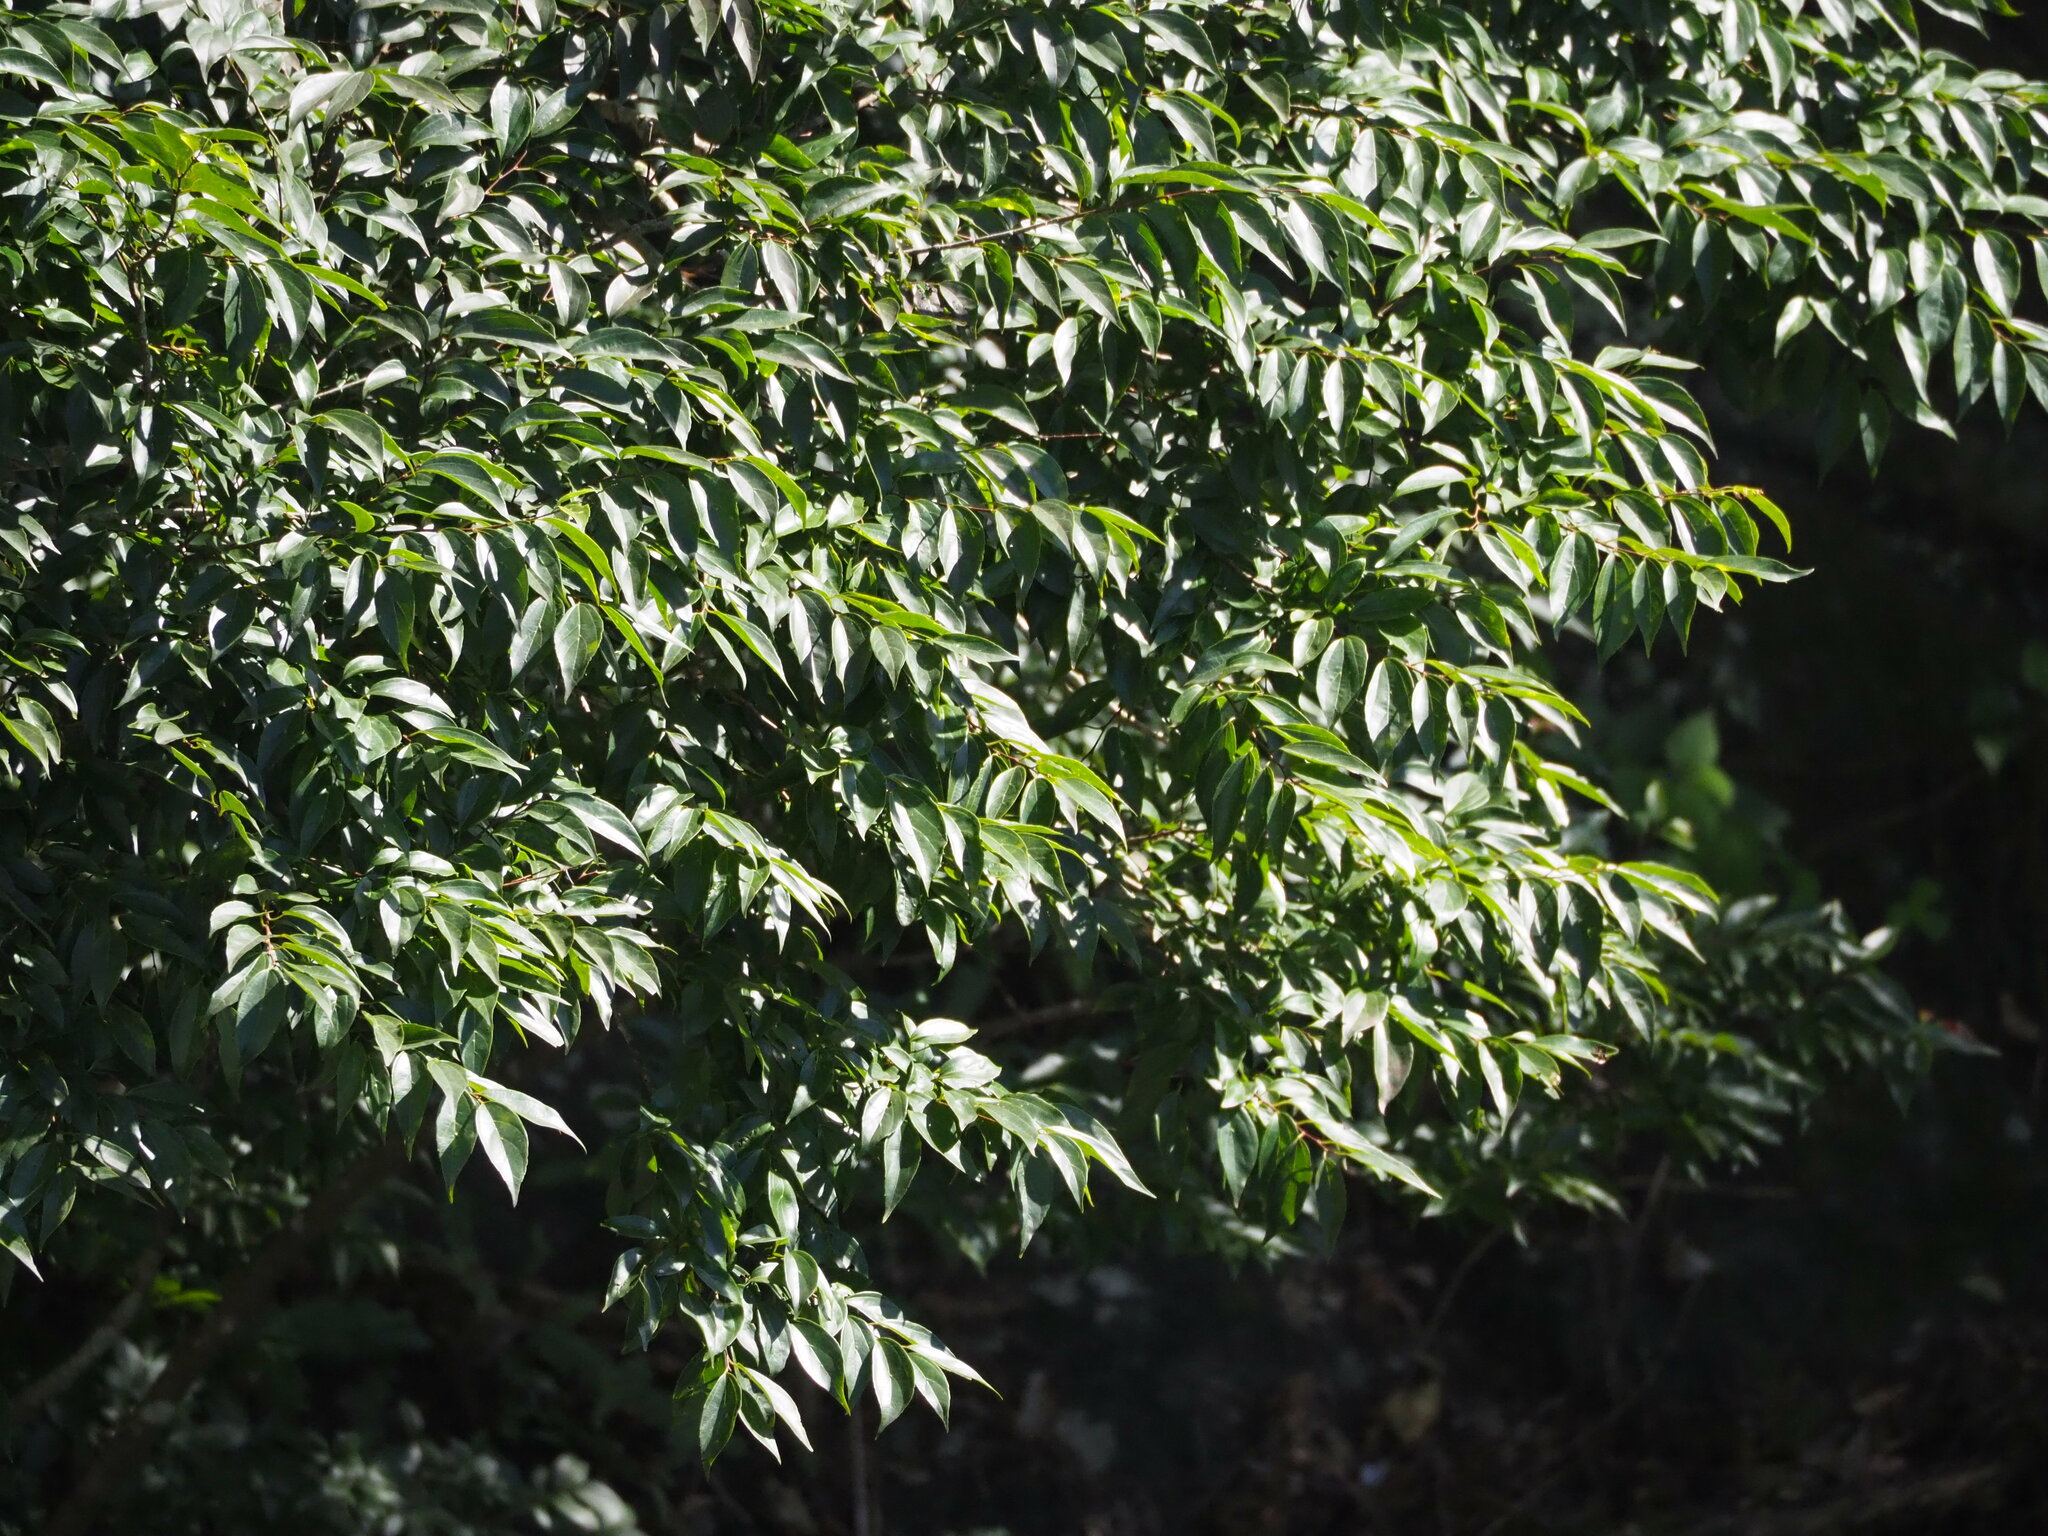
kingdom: Plantae
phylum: Tracheophyta
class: Magnoliopsida
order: Rosales
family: Cannabaceae
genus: Celtis
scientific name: Celtis tetrandra
